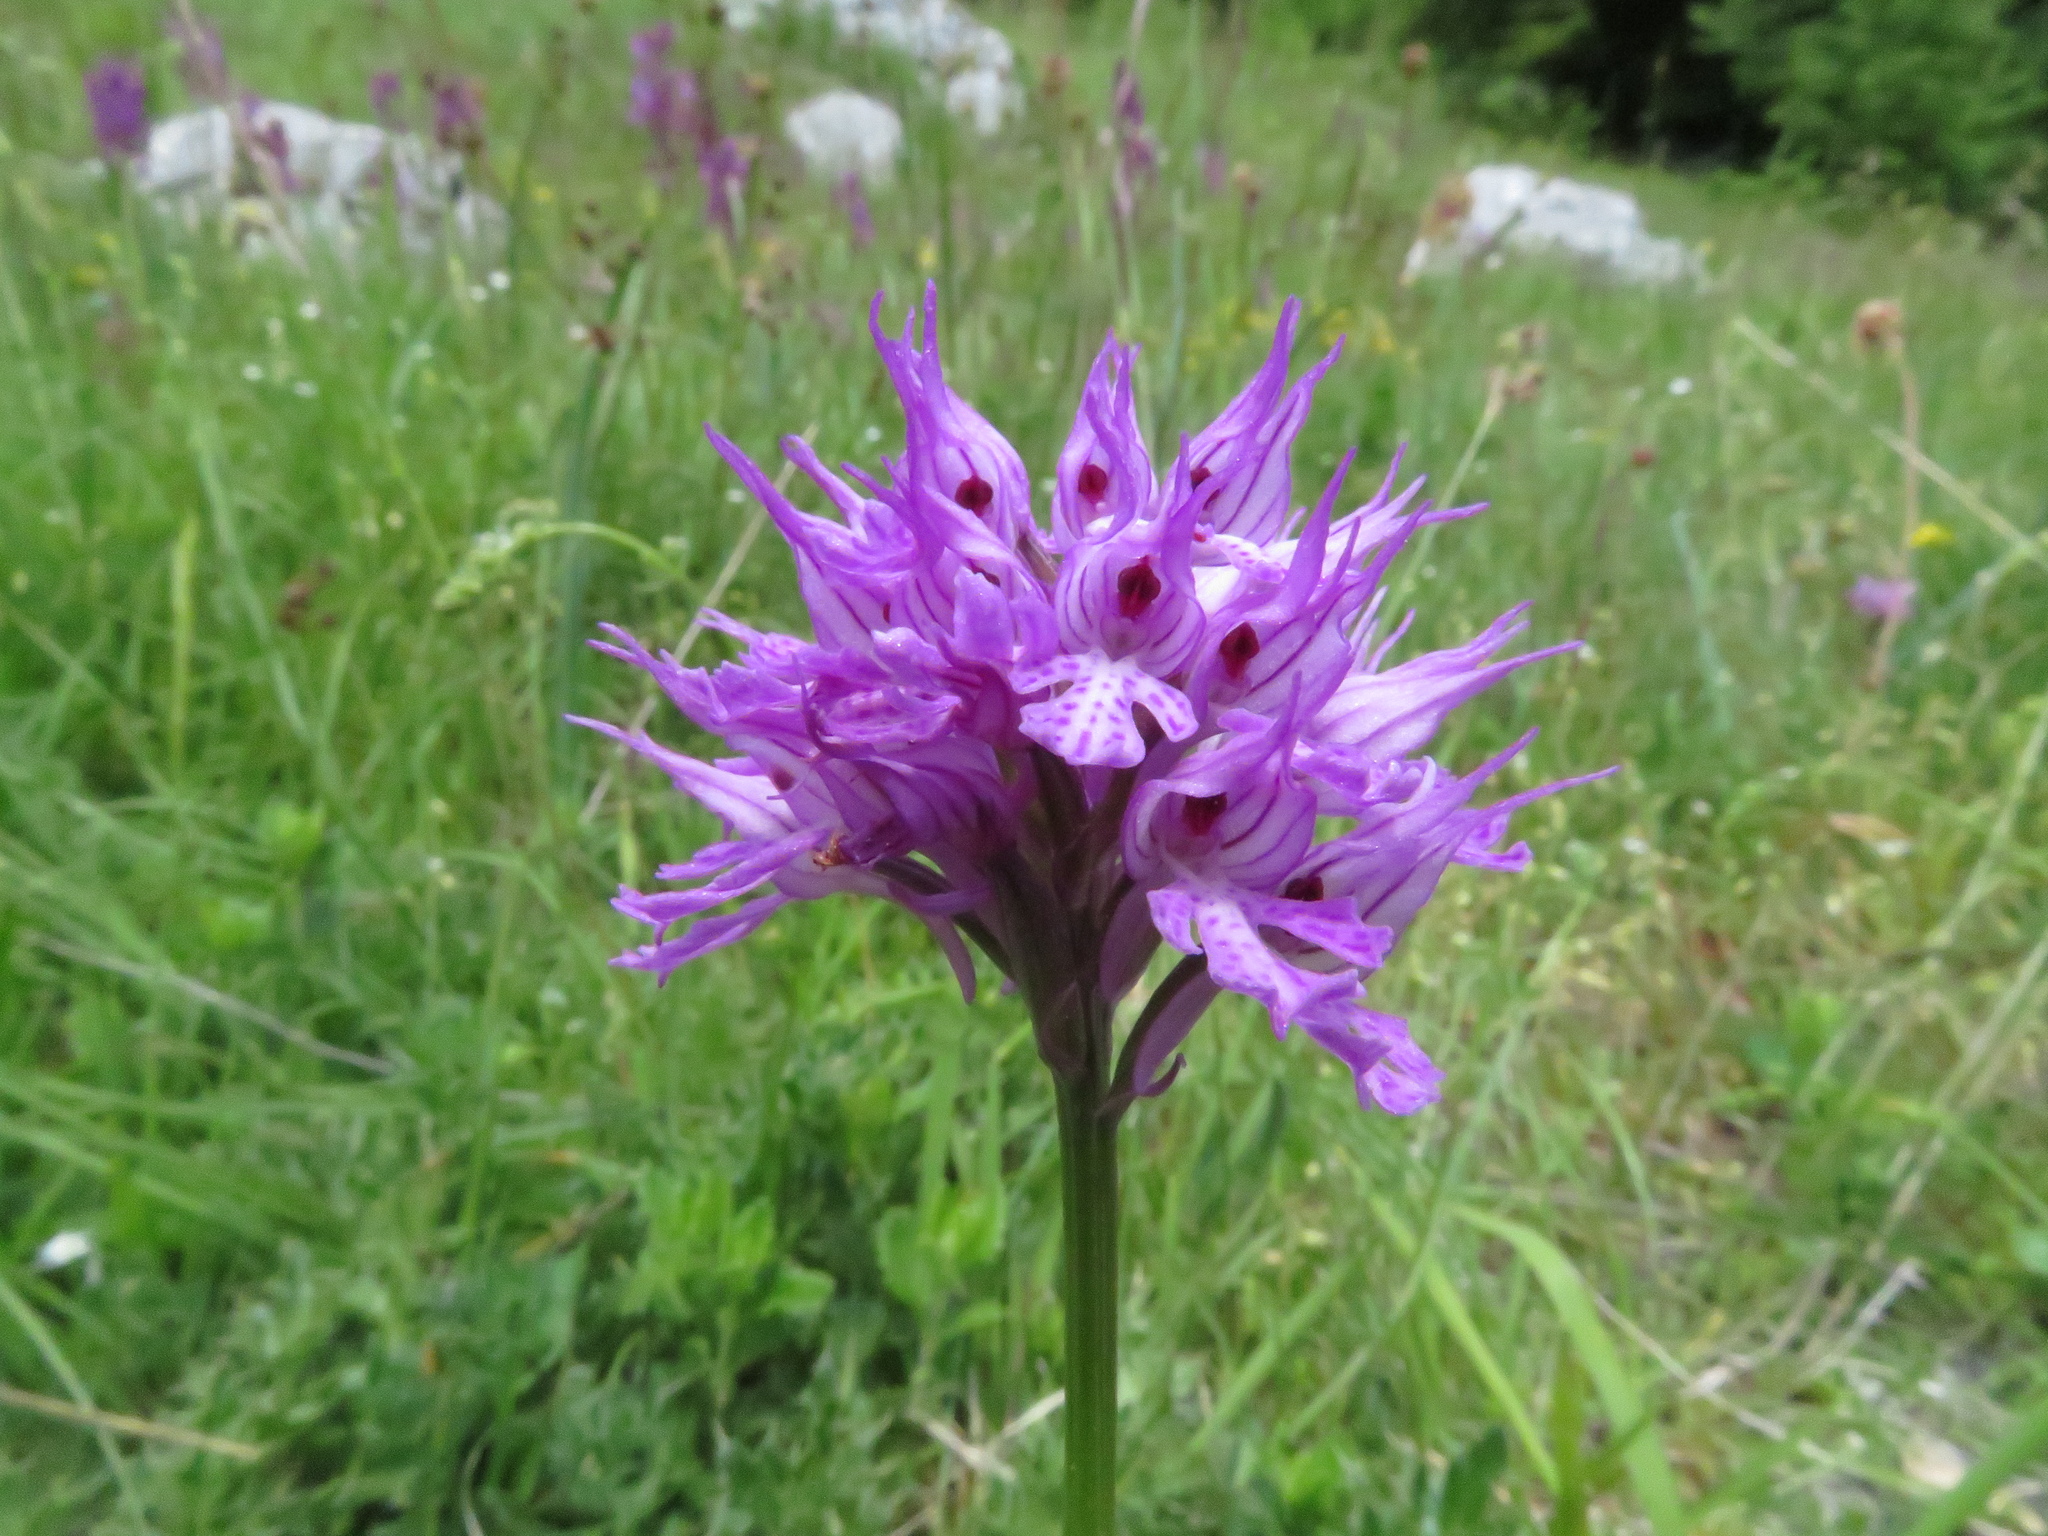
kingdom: Plantae
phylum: Tracheophyta
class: Liliopsida
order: Asparagales
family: Orchidaceae
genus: Neotinea
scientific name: Neotinea tridentata
